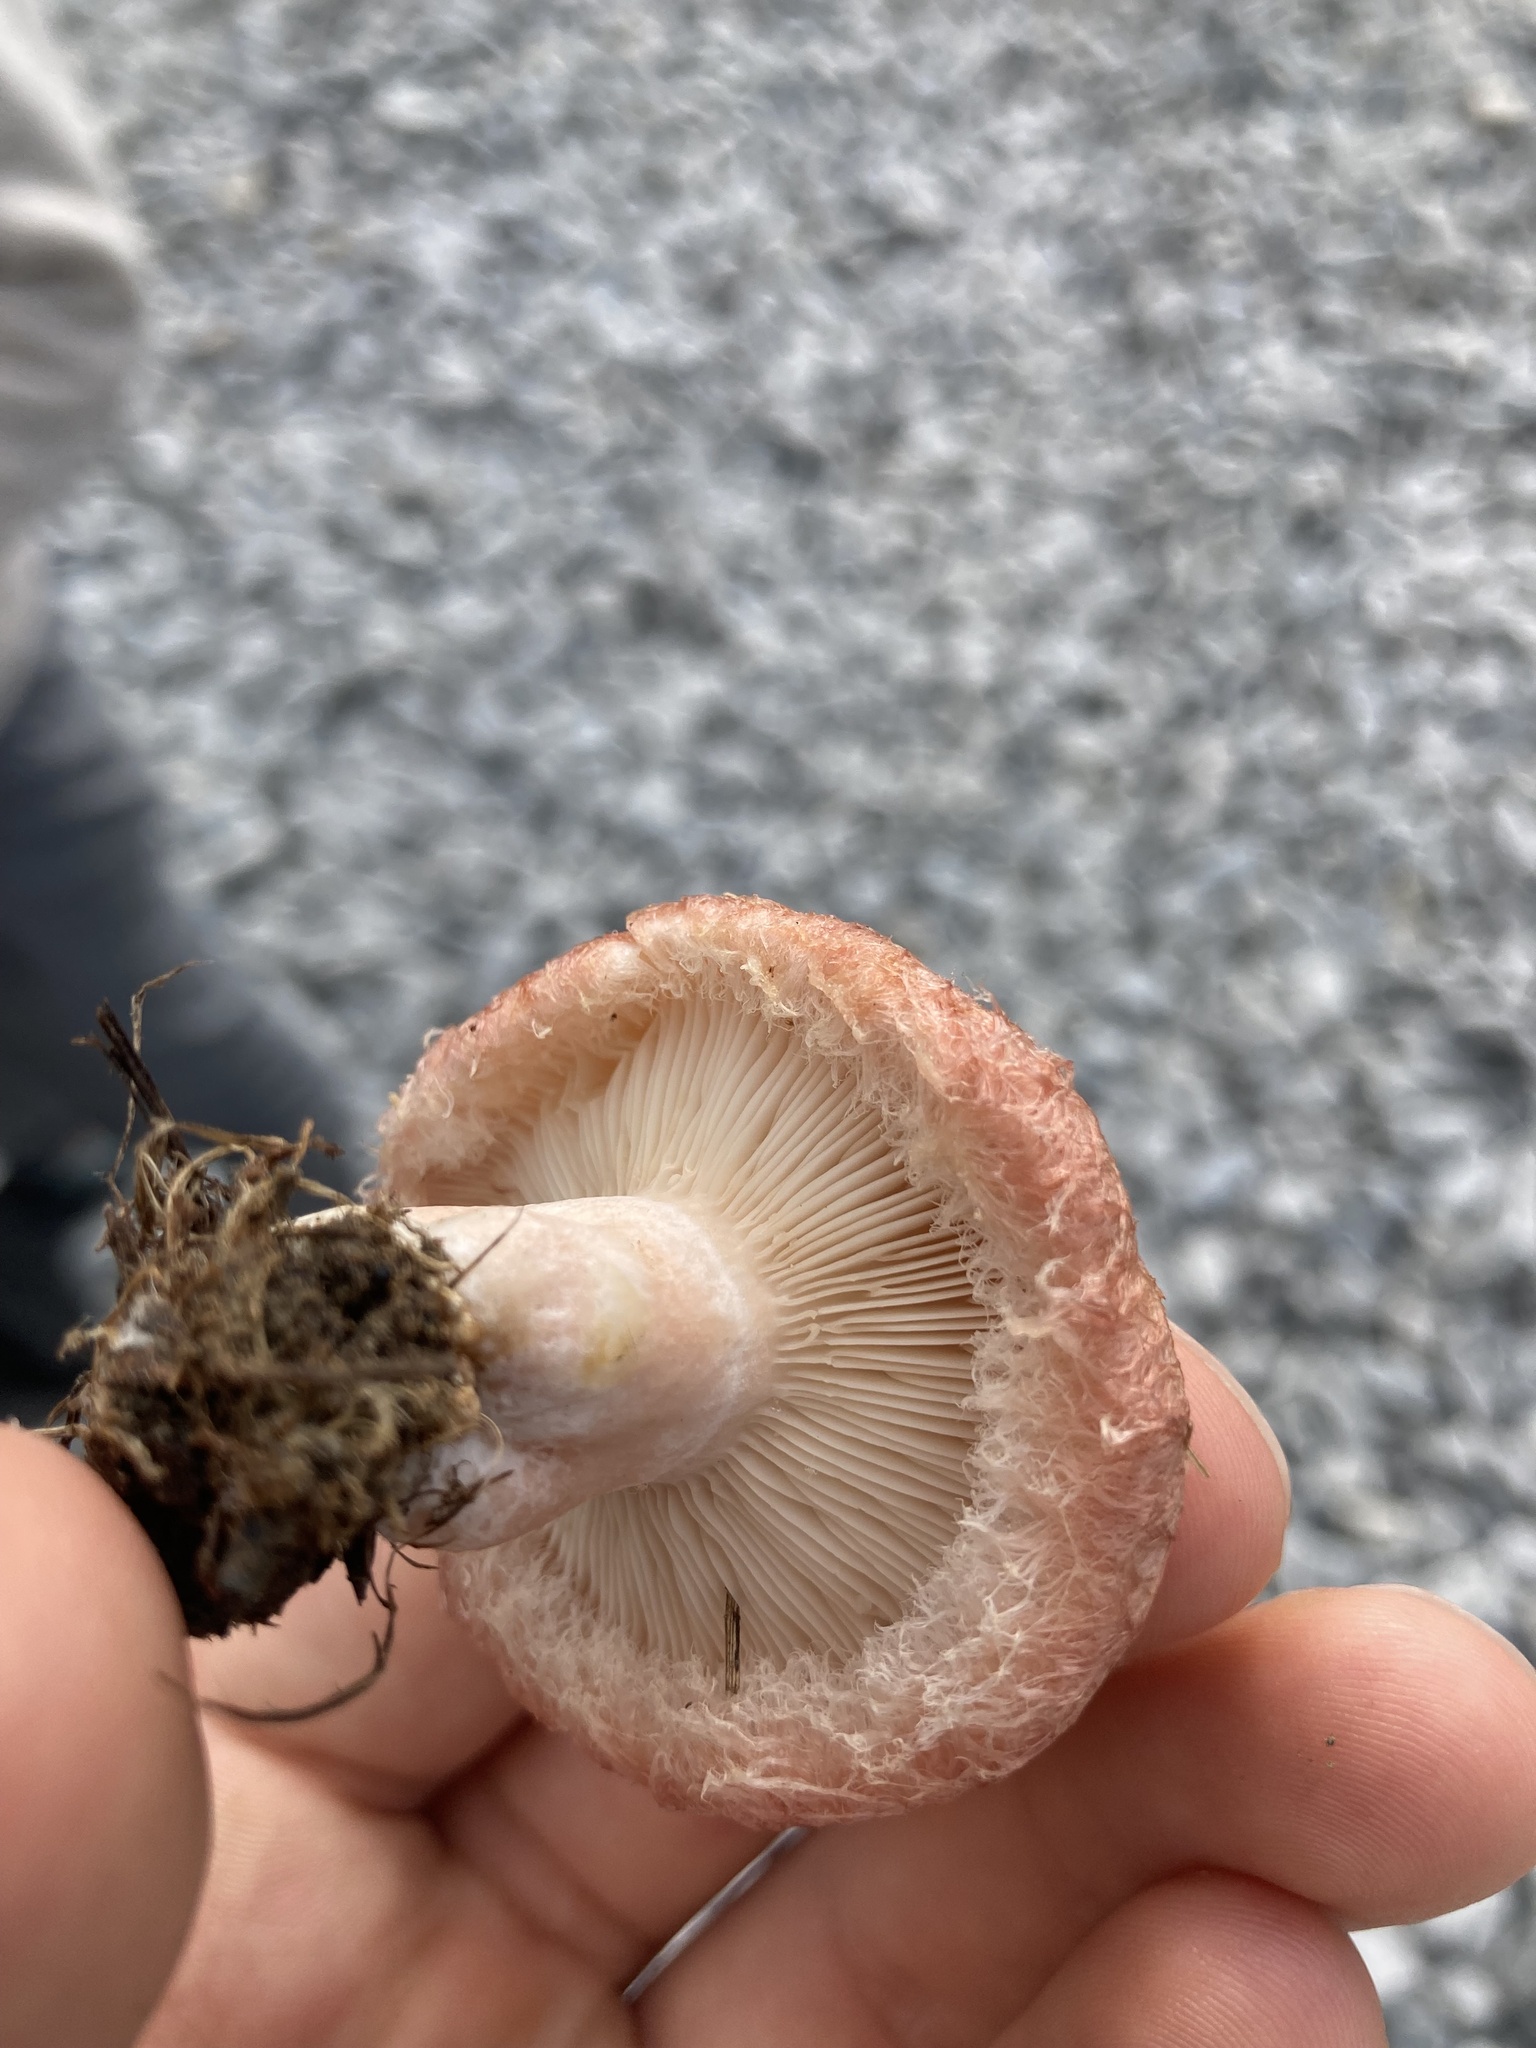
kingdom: Fungi
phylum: Basidiomycota
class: Agaricomycetes
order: Russulales
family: Russulaceae
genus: Lactarius
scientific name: Lactarius torminosus
